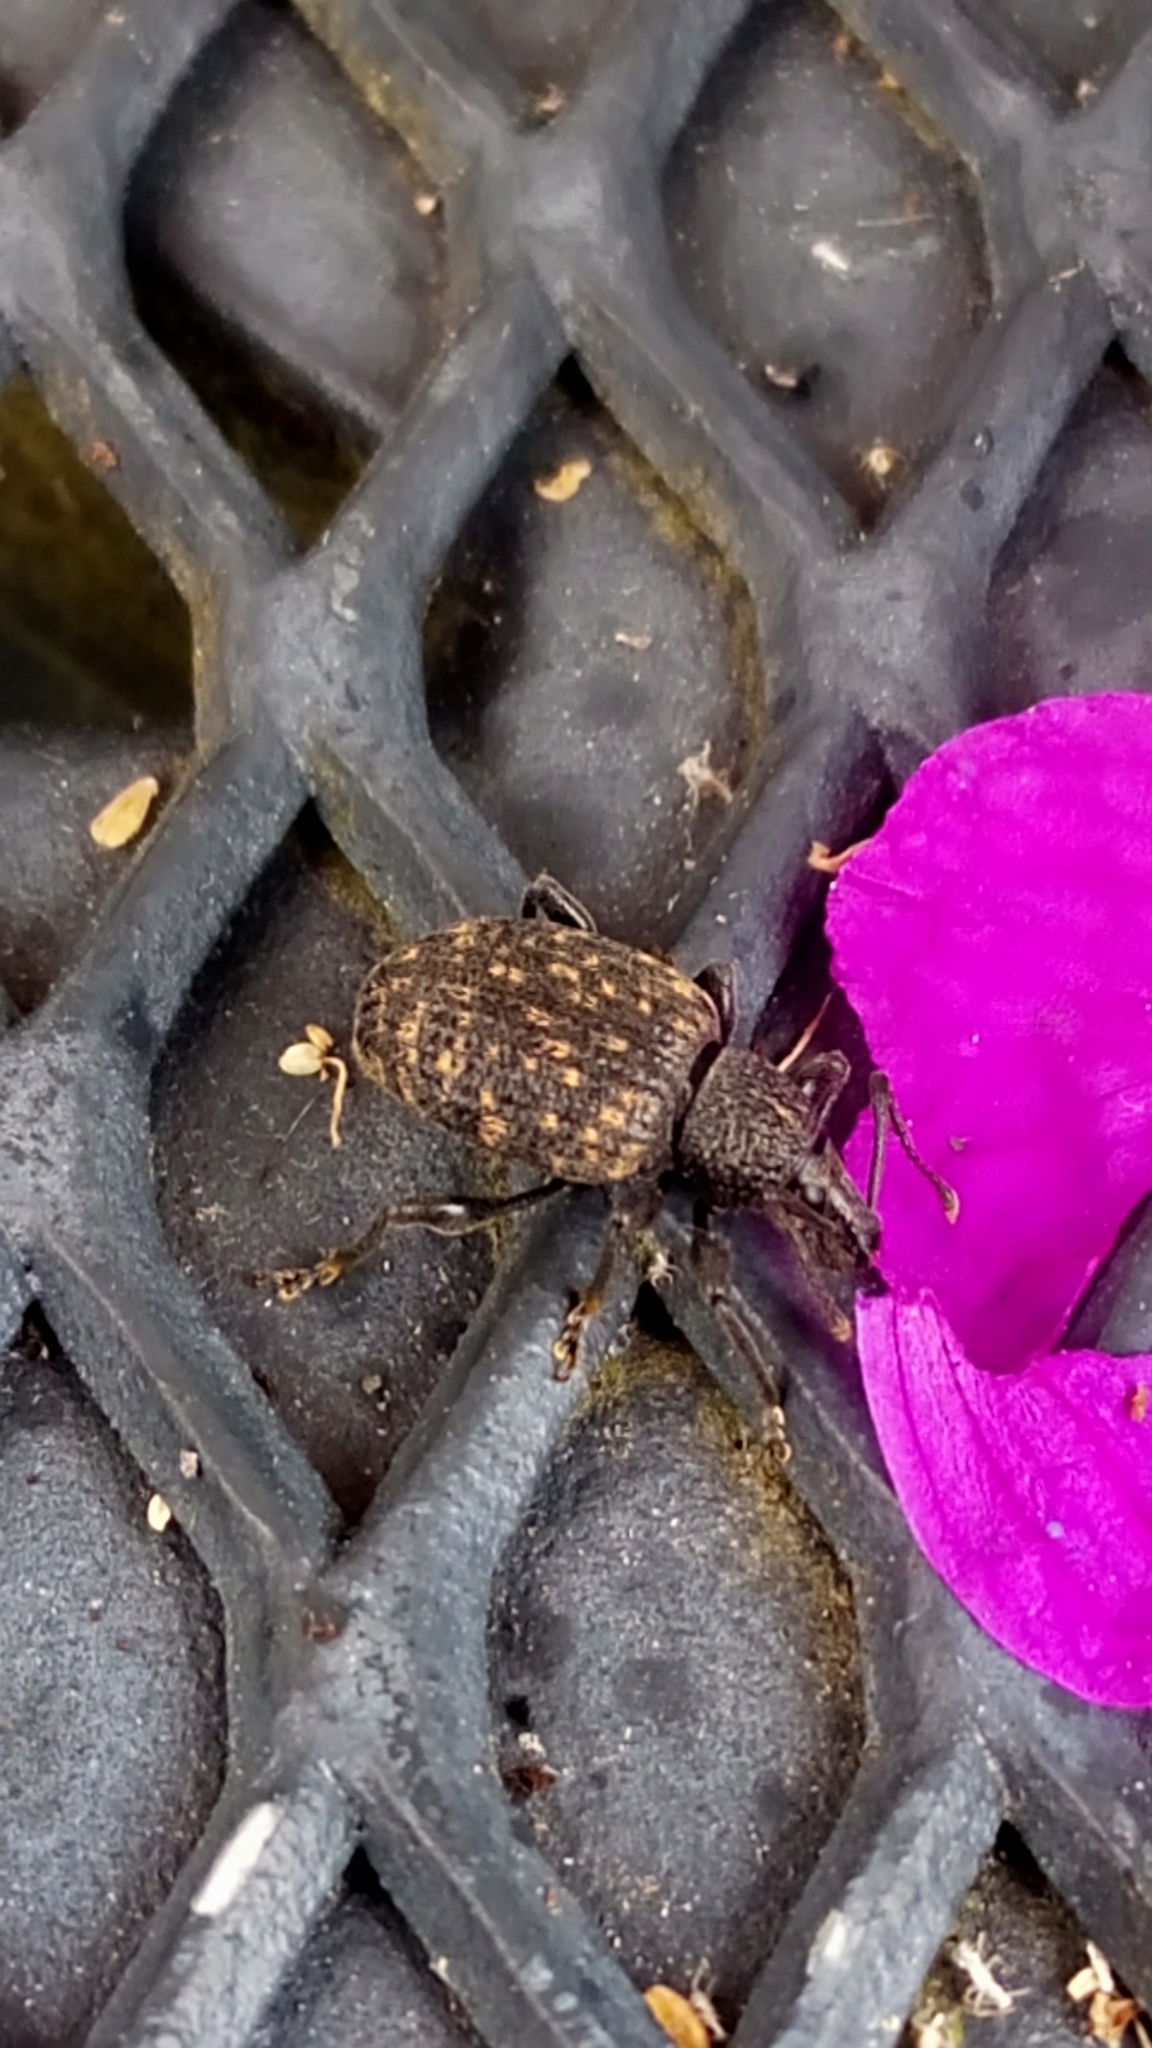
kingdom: Animalia
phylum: Arthropoda
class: Insecta
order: Coleoptera
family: Curculionidae
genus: Otiorhynchus
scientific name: Otiorhynchus sulcatus
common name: Black vine weevil
